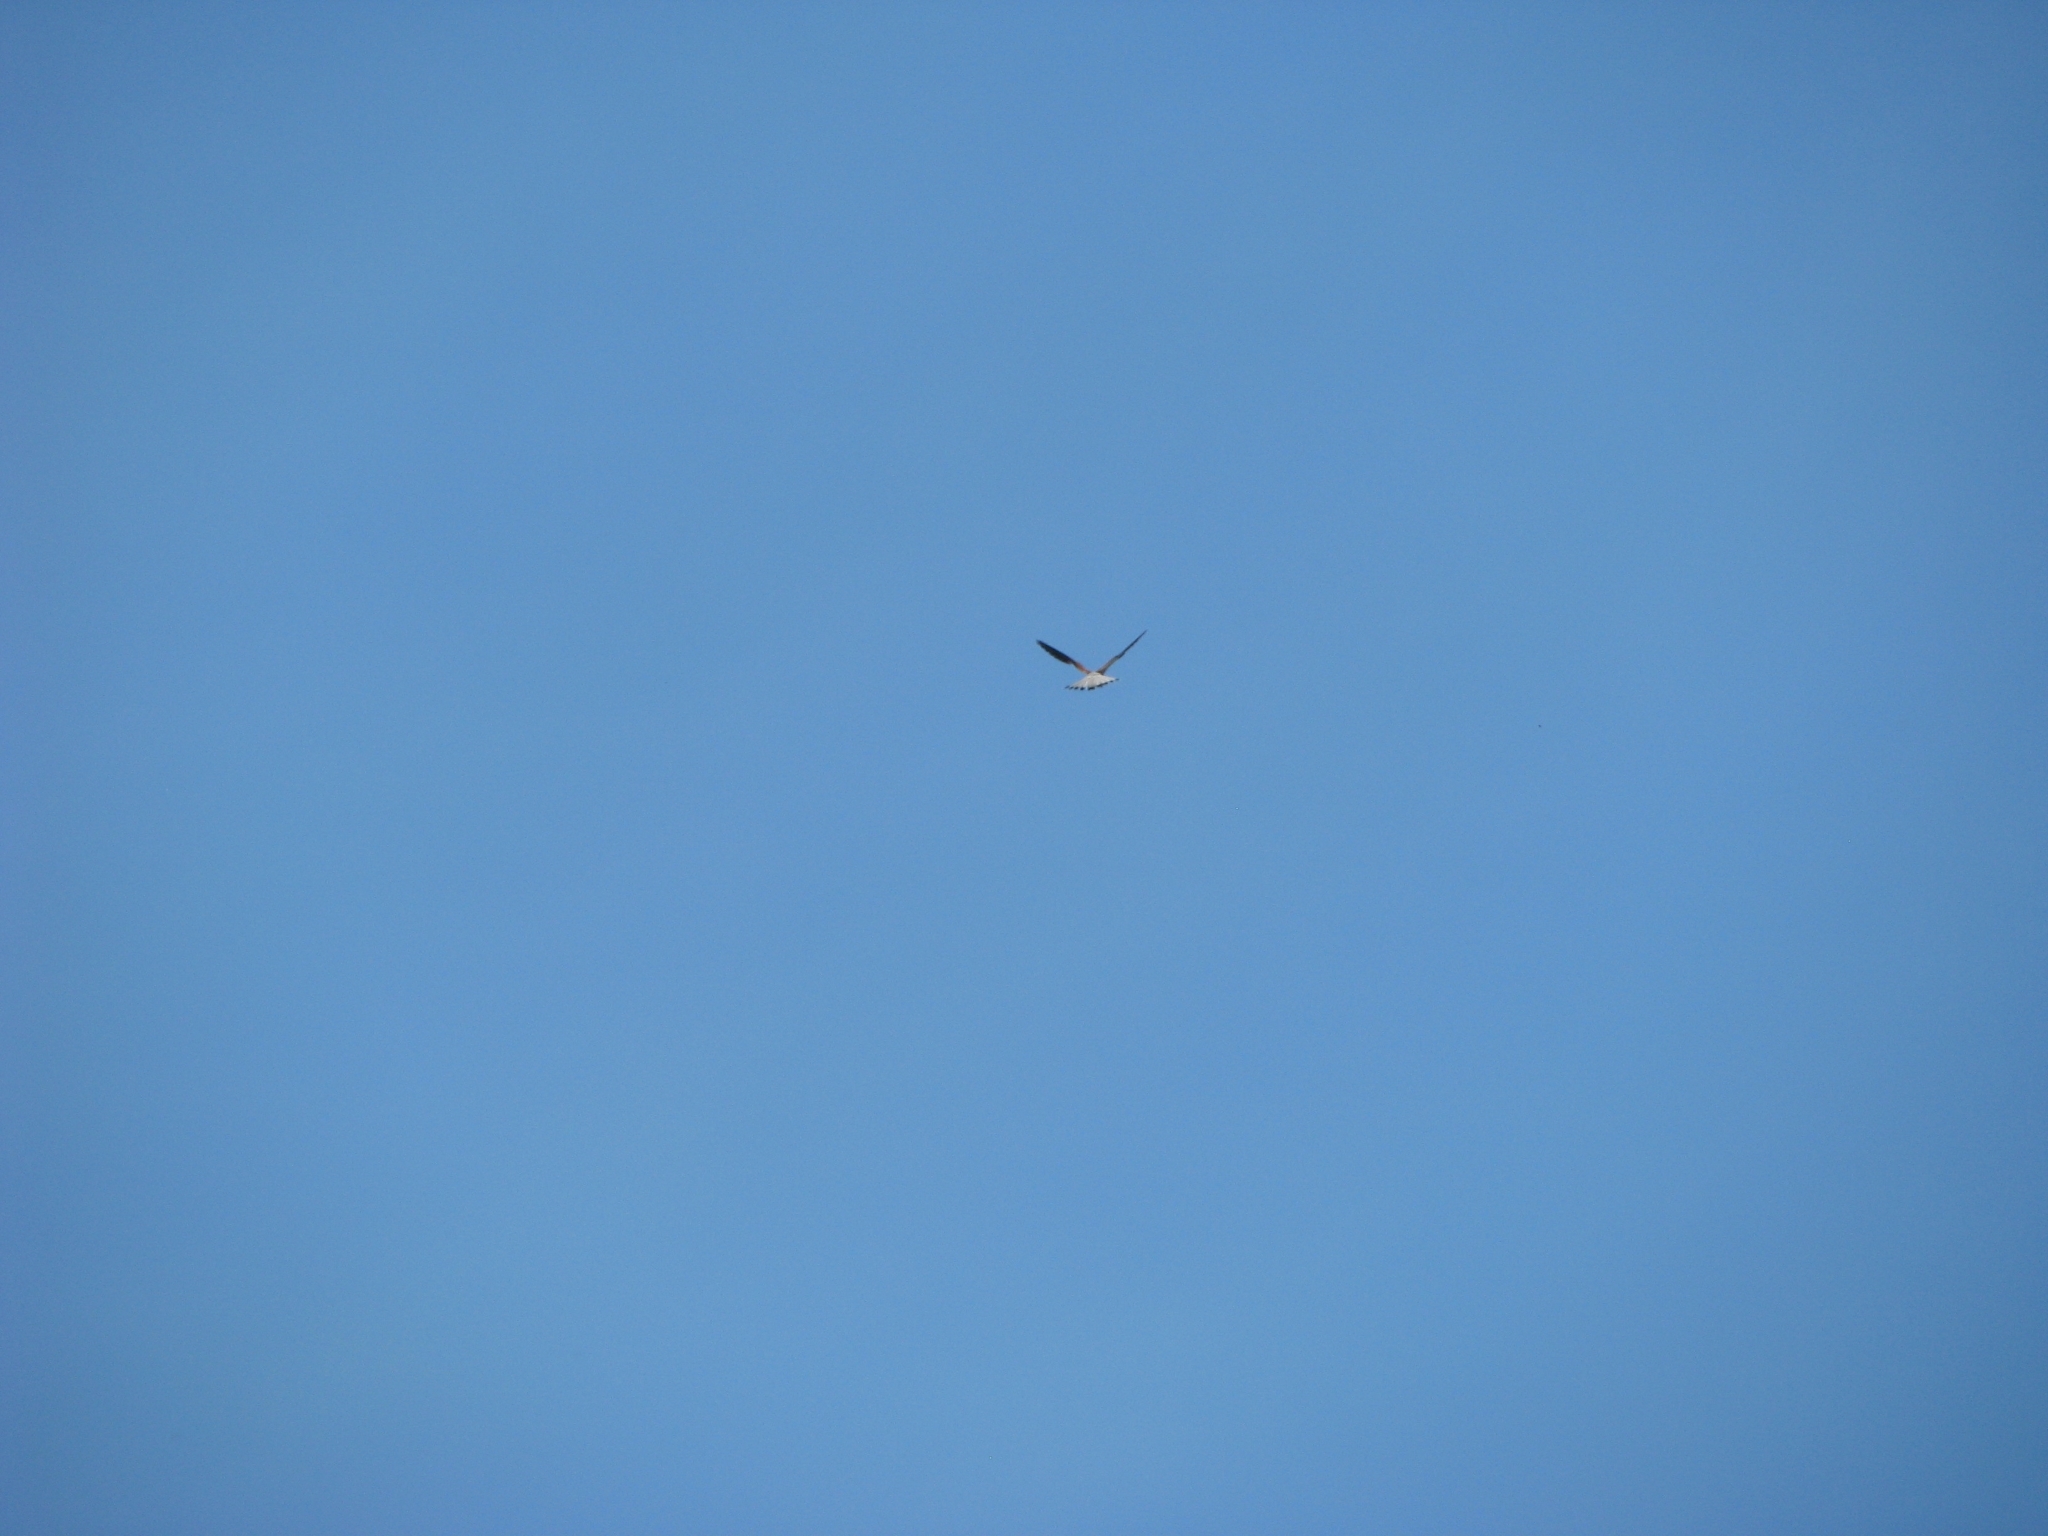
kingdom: Animalia
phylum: Chordata
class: Aves
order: Falconiformes
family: Falconidae
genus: Falco
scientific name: Falco tinnunculus
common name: Common kestrel
